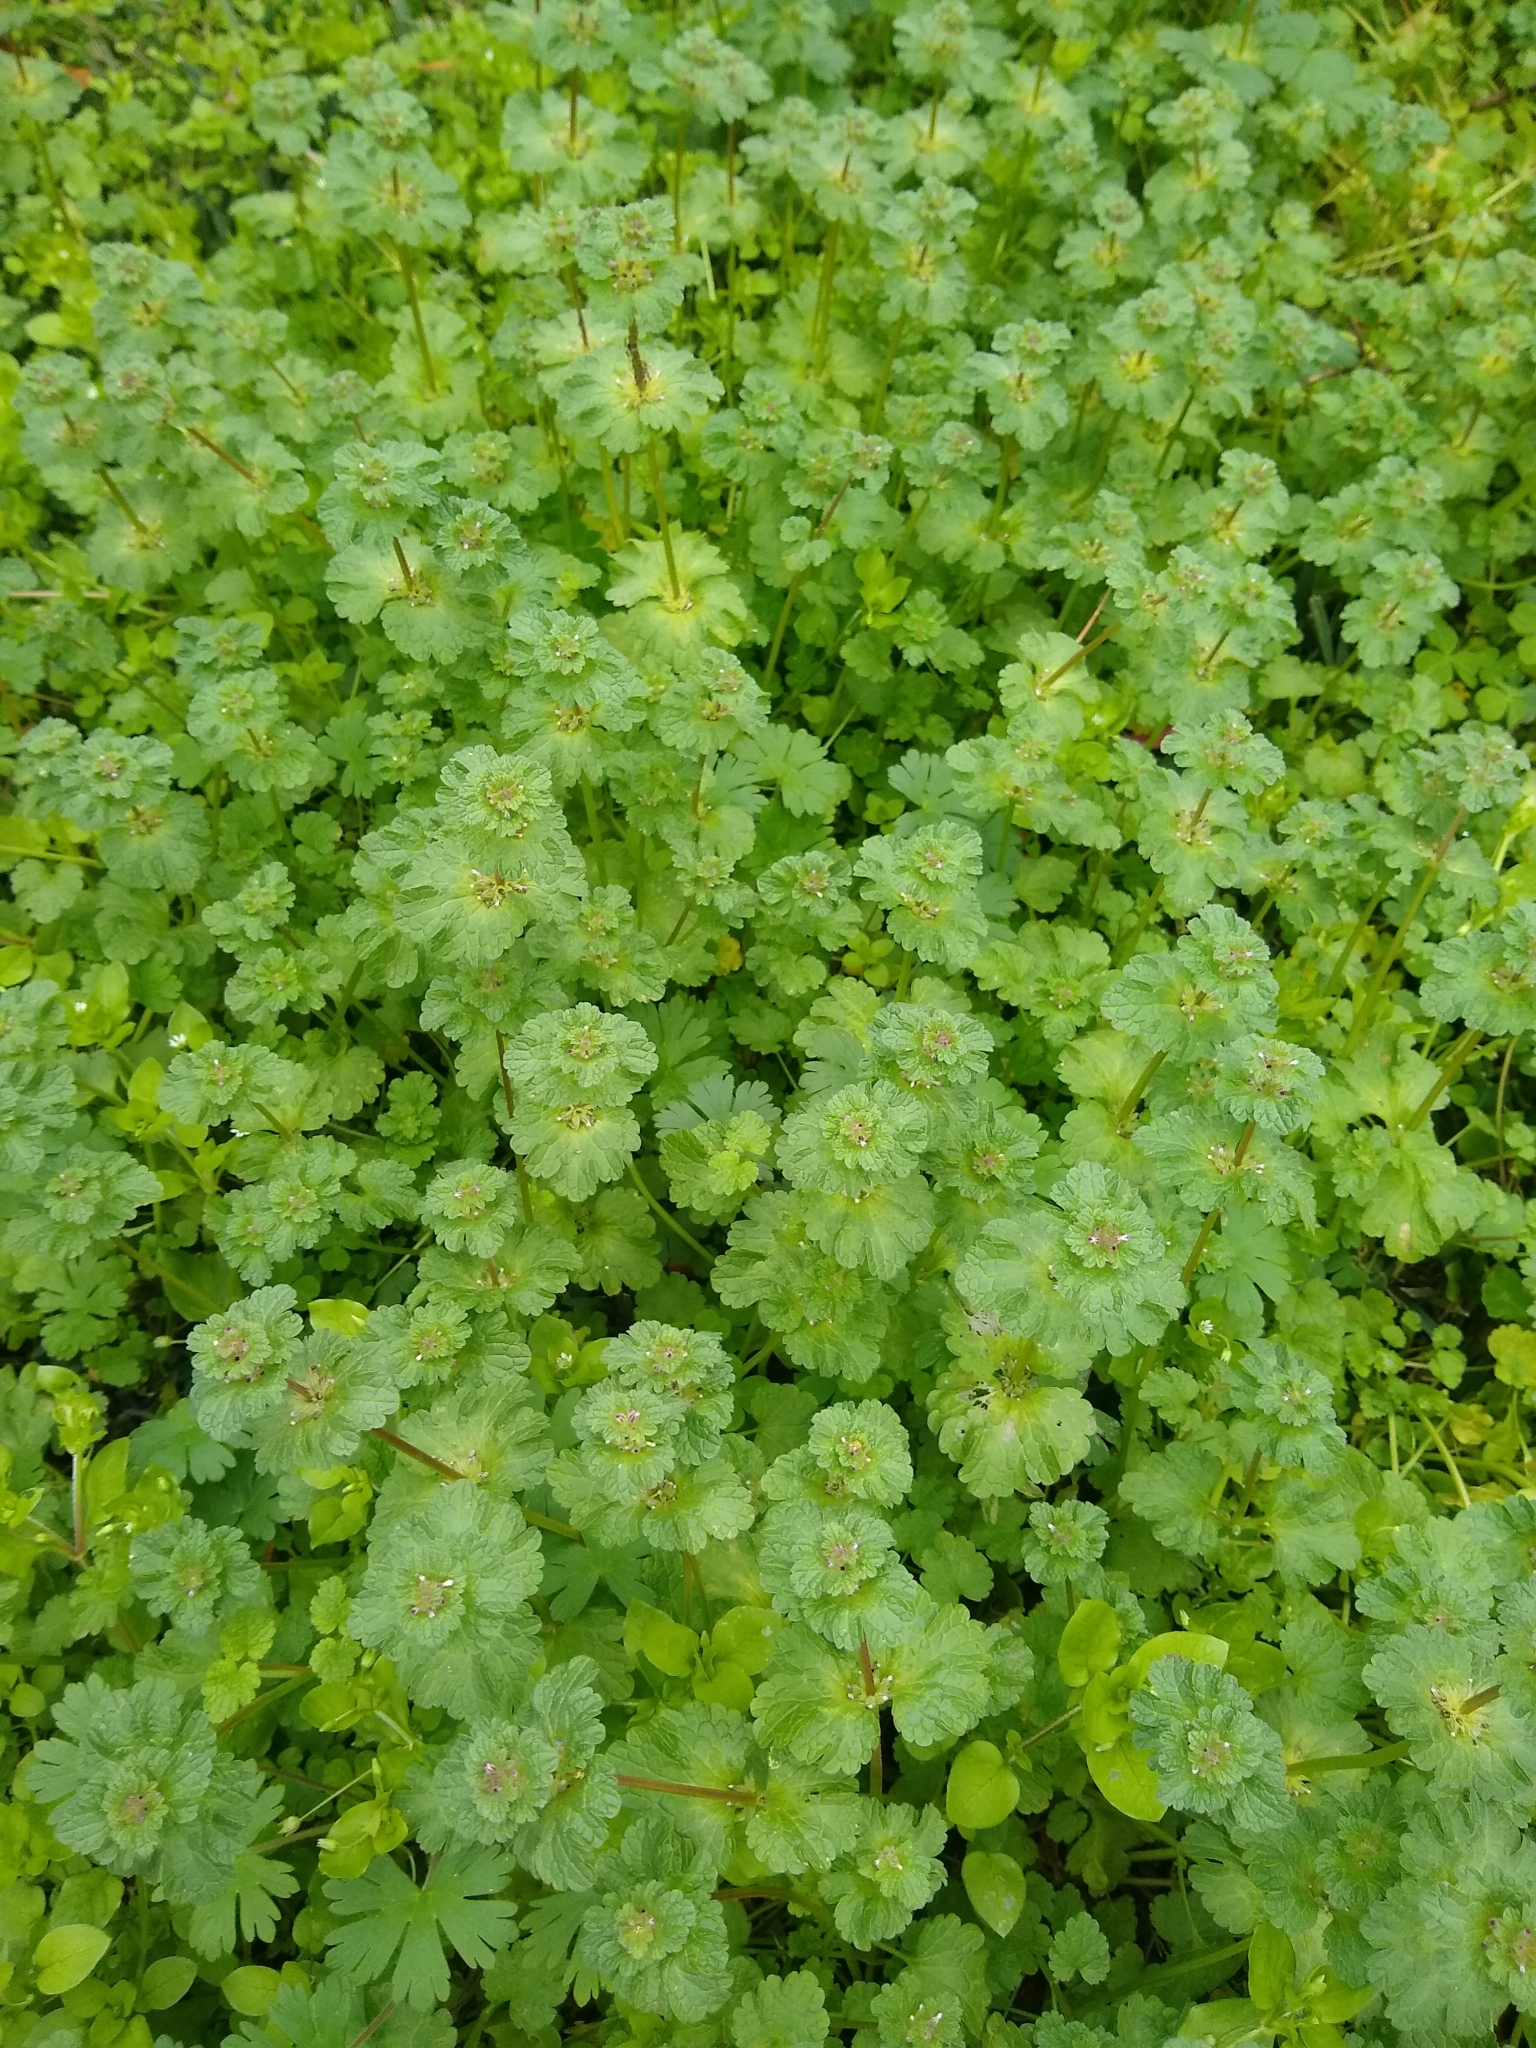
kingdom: Plantae
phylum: Tracheophyta
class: Magnoliopsida
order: Lamiales
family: Lamiaceae
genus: Lamium
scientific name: Lamium amplexicaule
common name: Henbit dead-nettle
